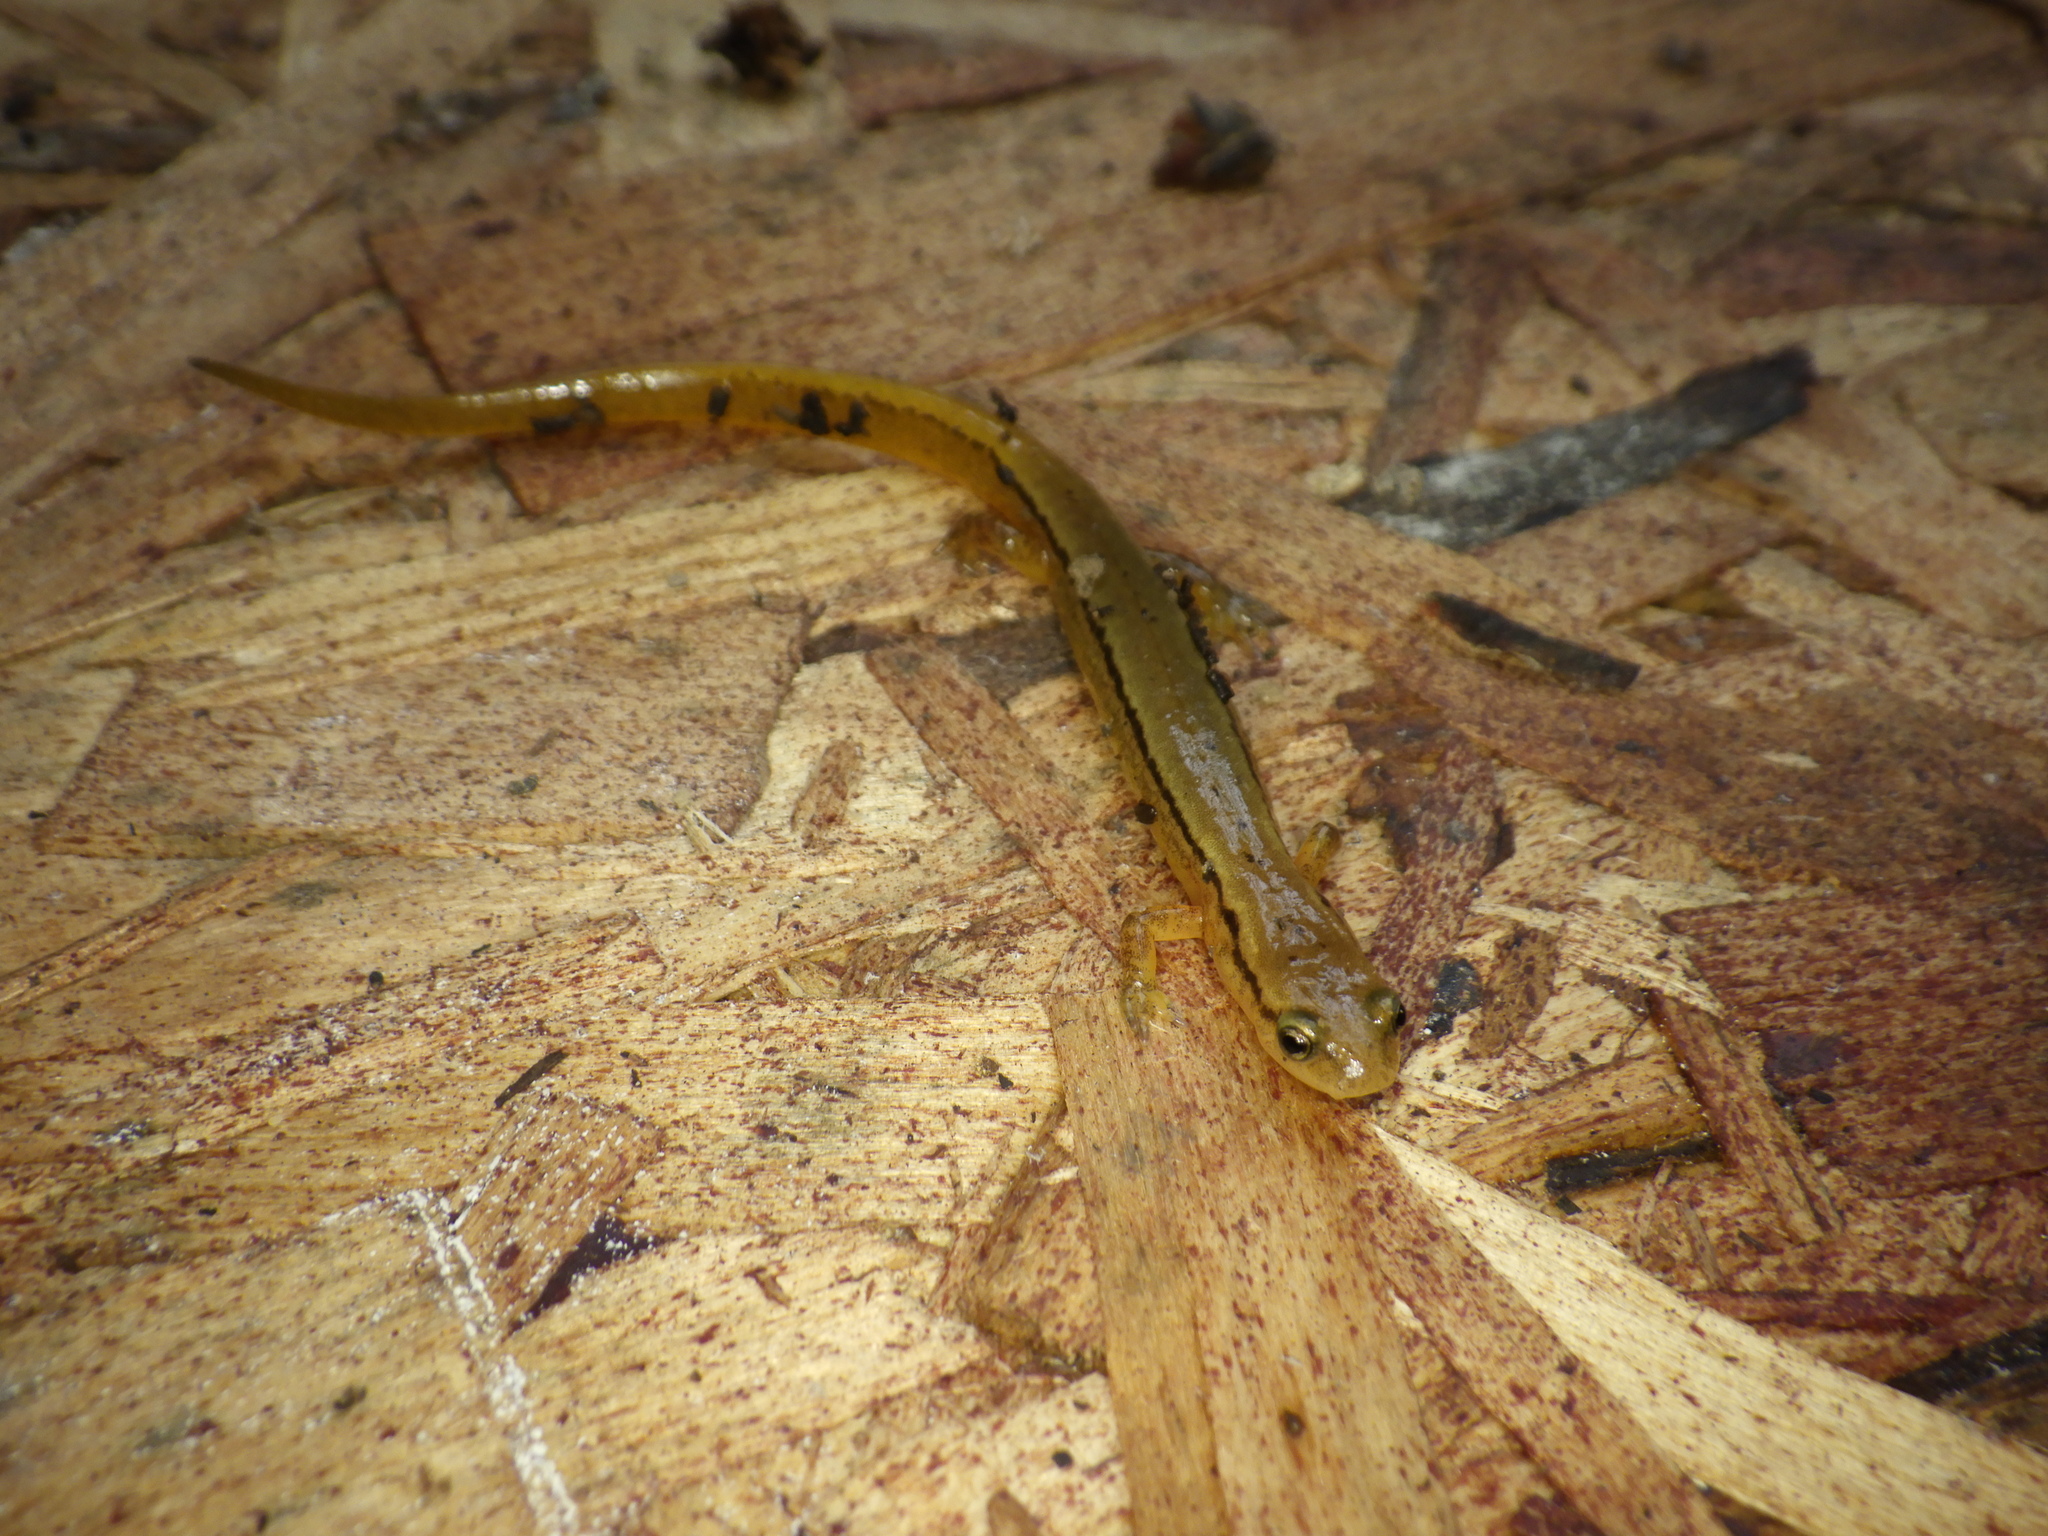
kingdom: Animalia
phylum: Chordata
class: Amphibia
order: Caudata
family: Plethodontidae
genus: Eurycea
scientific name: Eurycea bislineata
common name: Northern two-lined salamander
